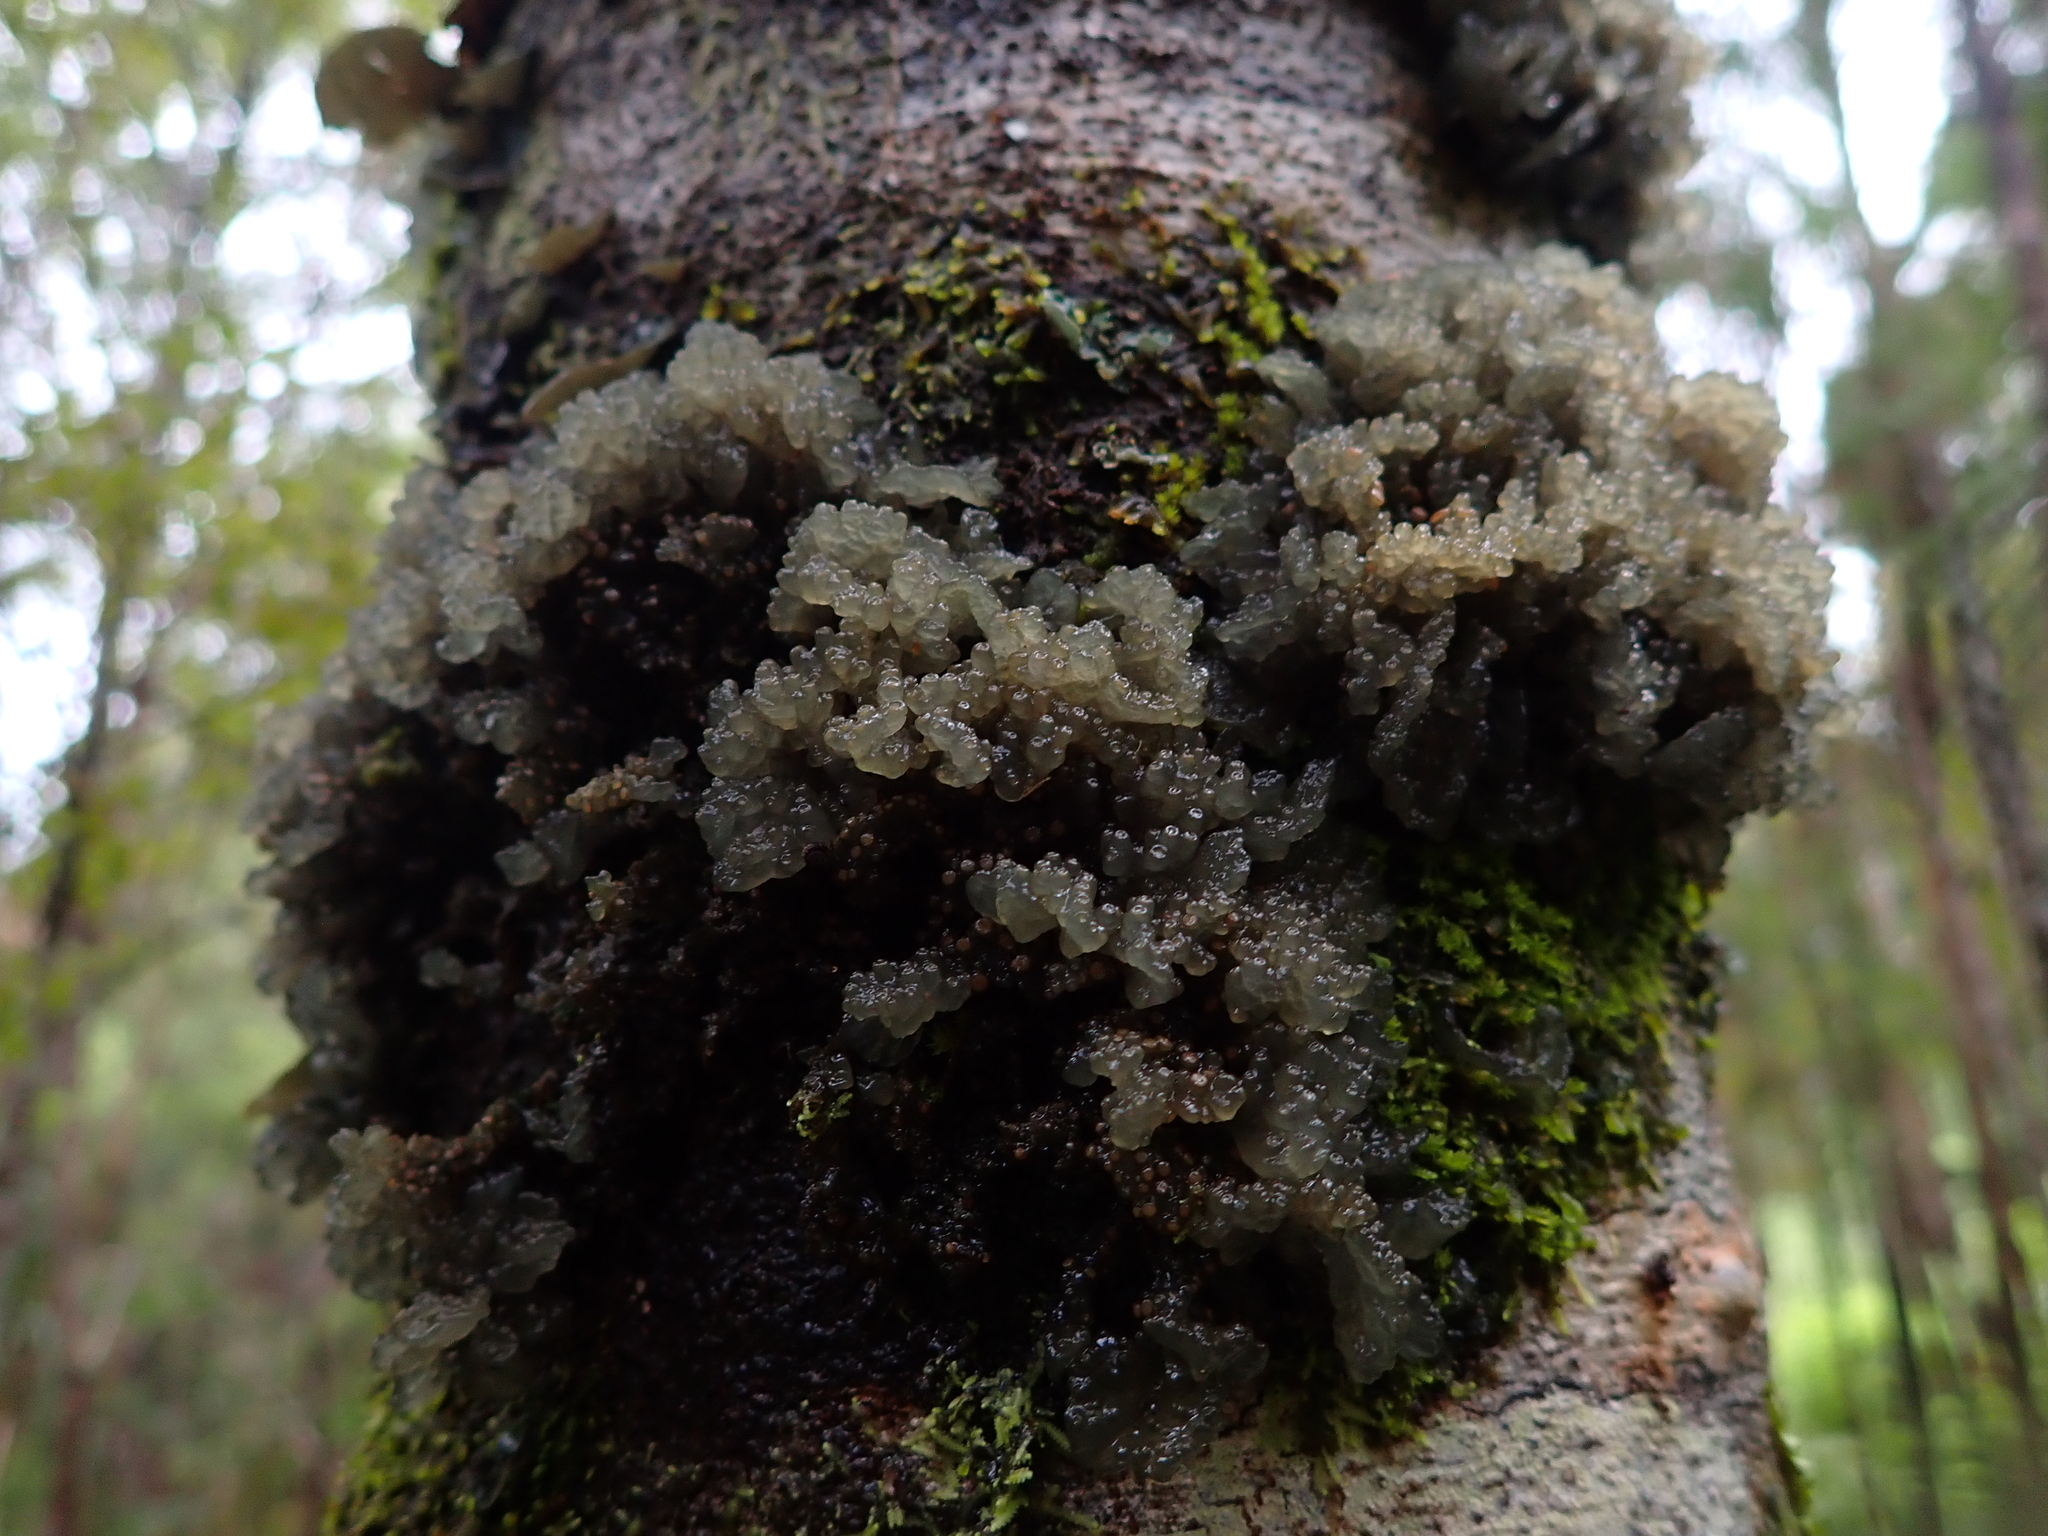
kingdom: Fungi
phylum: Ascomycota
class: Lecanoromycetes
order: Arctomiales
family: Arctomiaceae
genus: Arctomia
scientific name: Arctomia fascicularis
